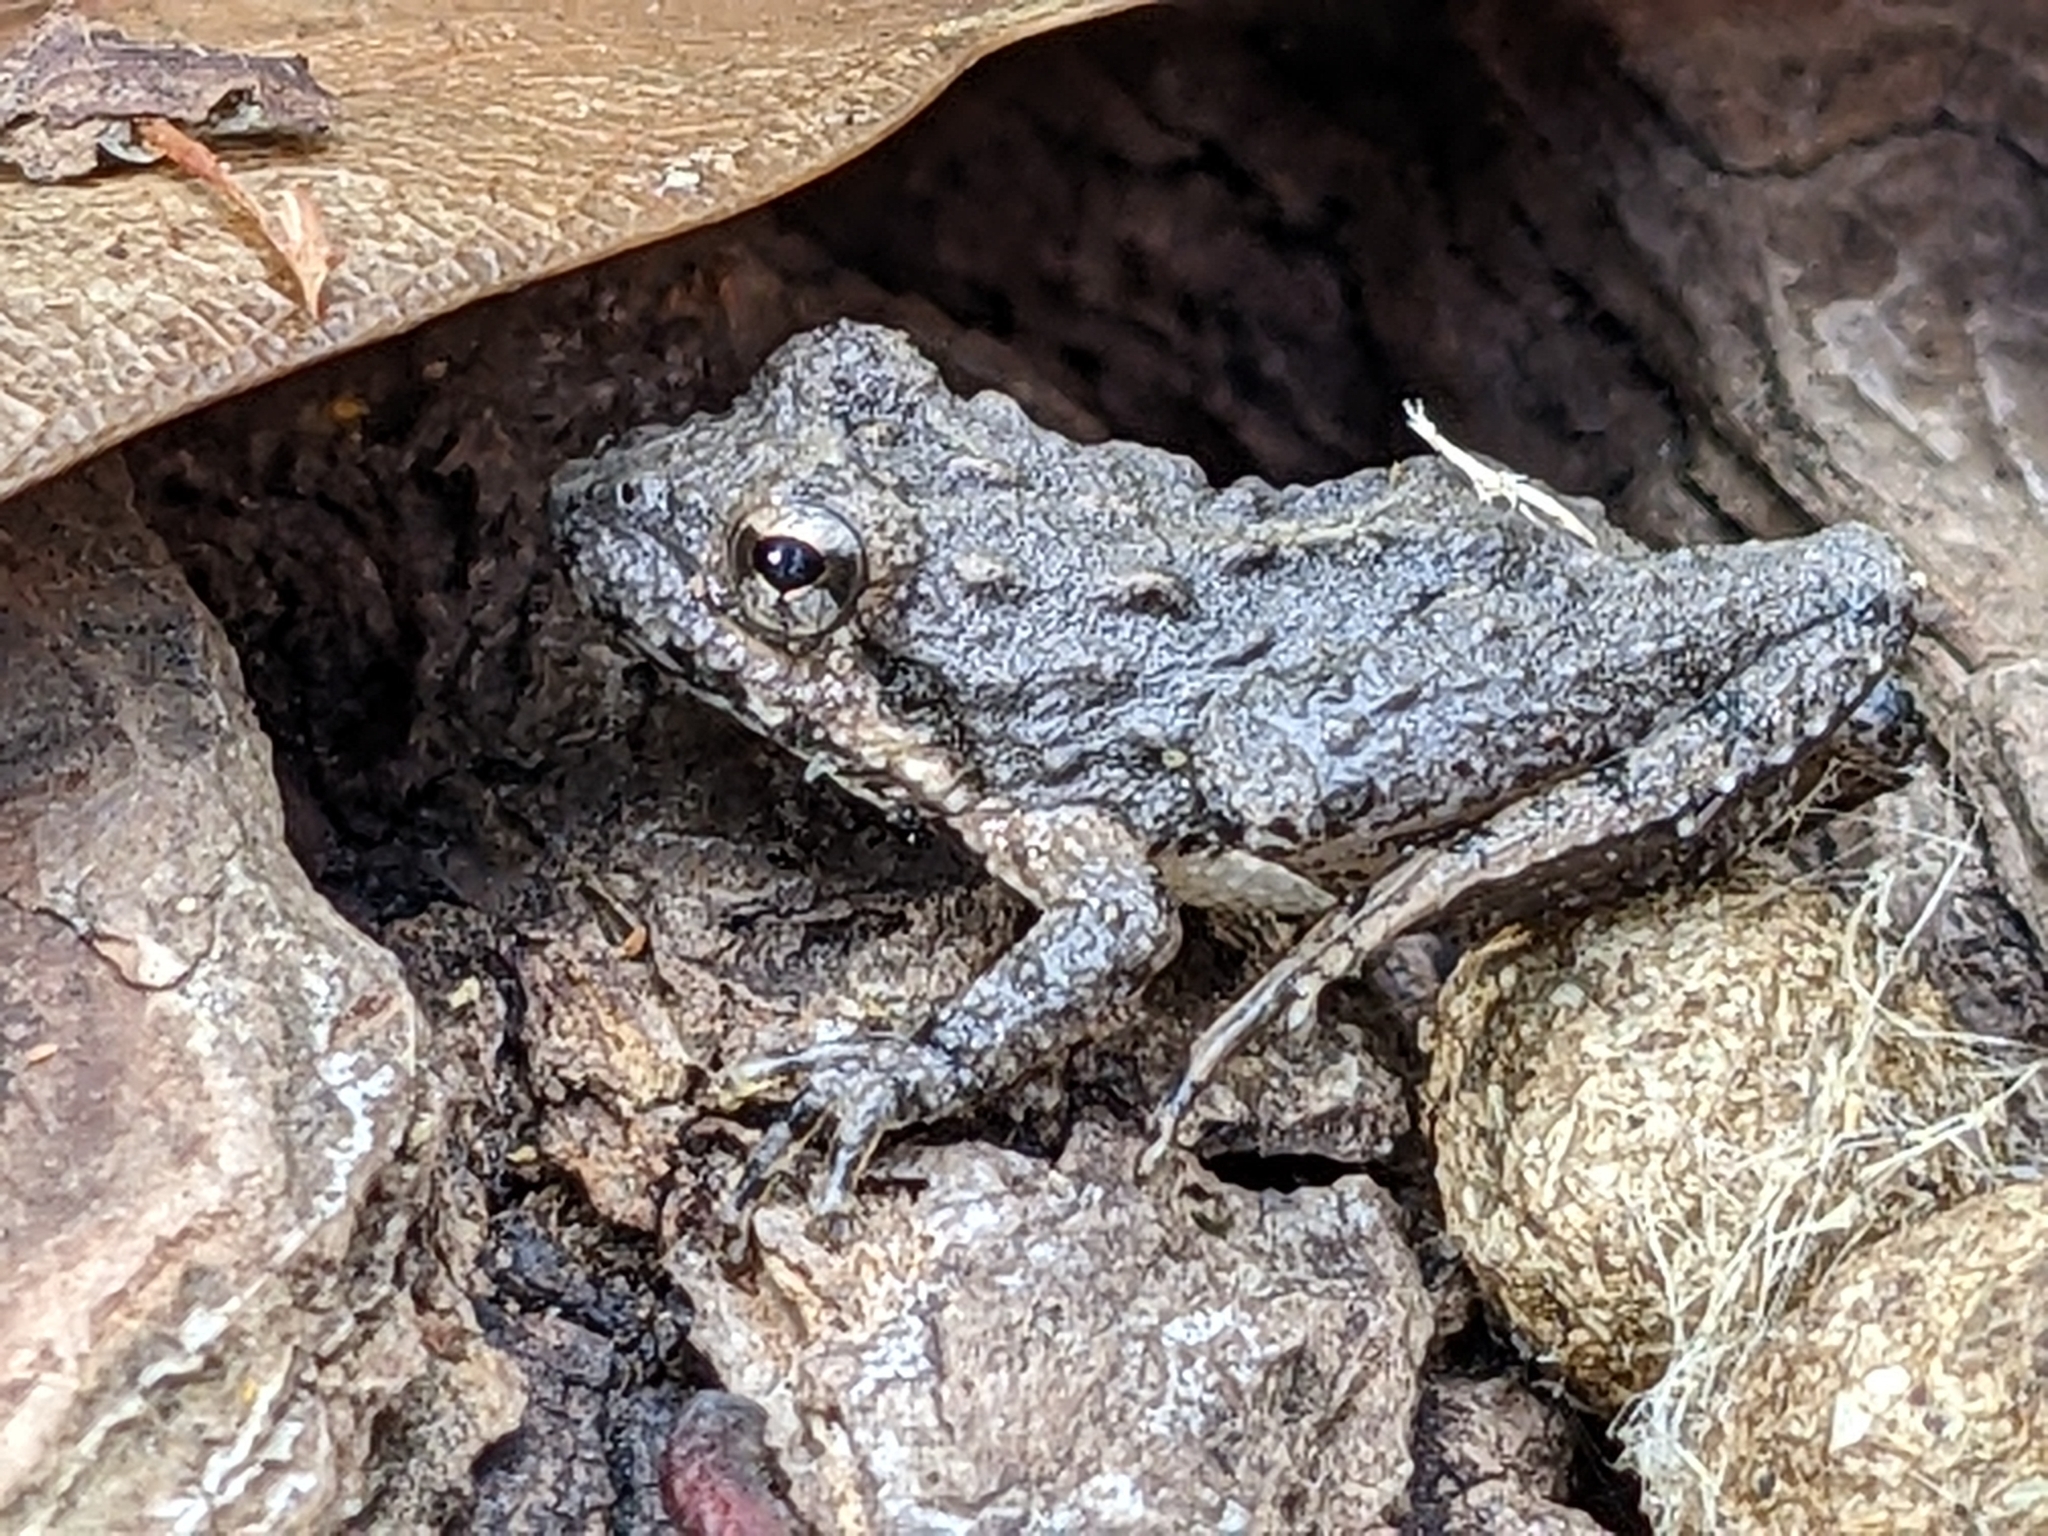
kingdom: Animalia
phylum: Chordata
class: Amphibia
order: Anura
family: Hylidae
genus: Acris
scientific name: Acris
